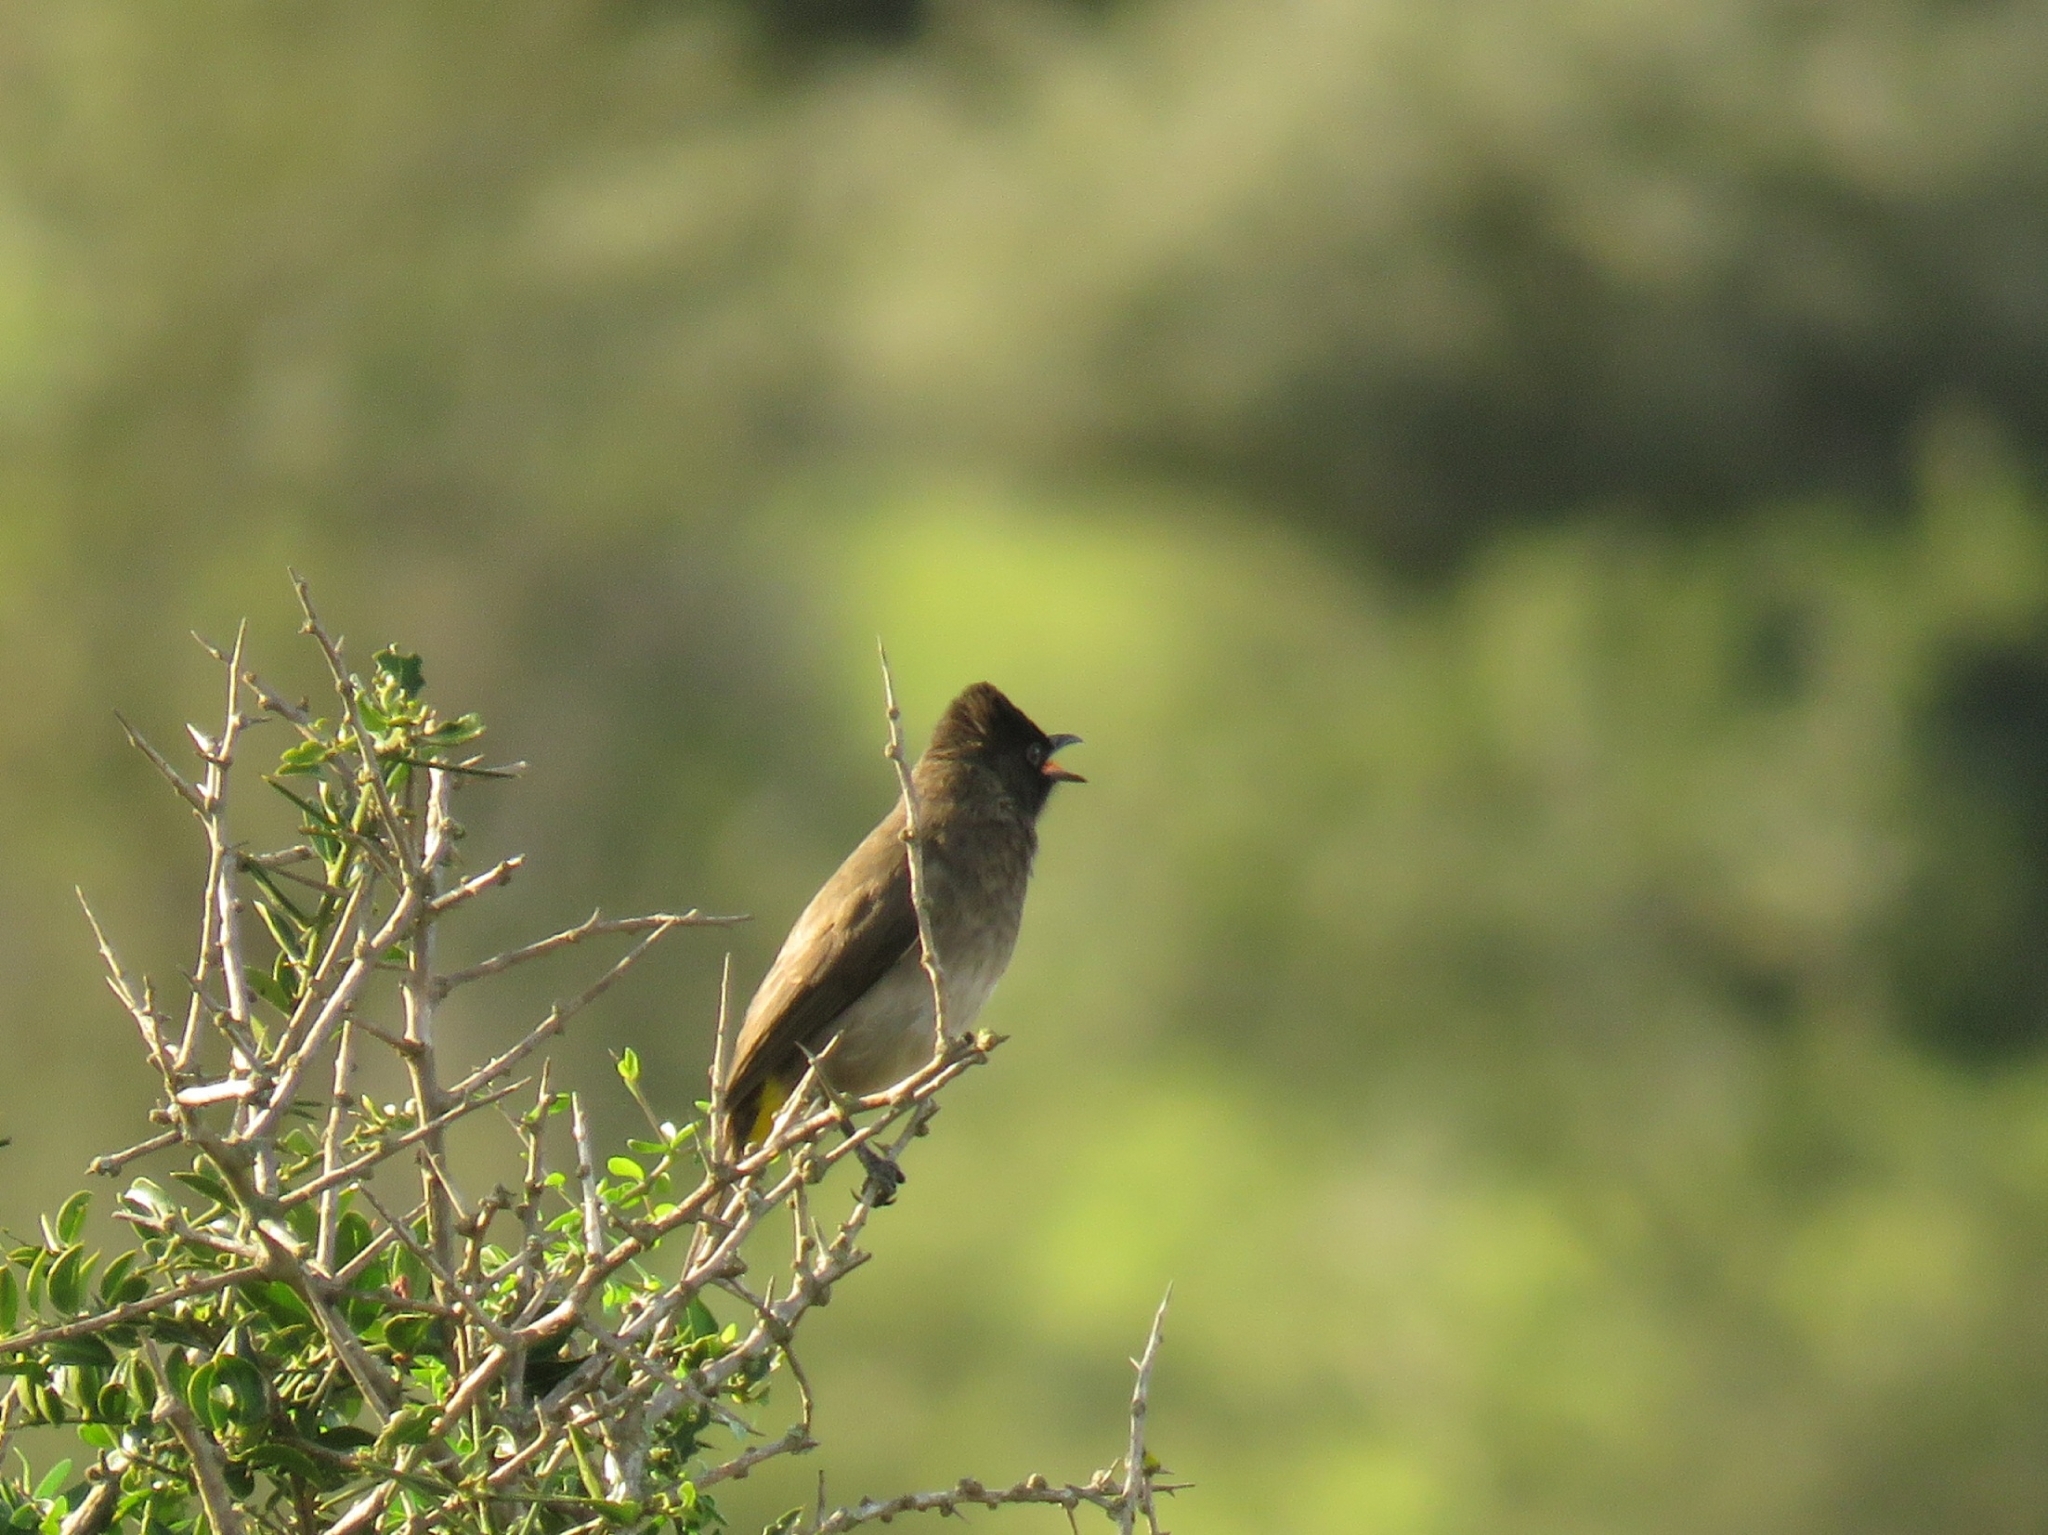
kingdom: Animalia
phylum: Chordata
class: Aves
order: Passeriformes
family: Pycnonotidae
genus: Pycnonotus
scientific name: Pycnonotus barbatus
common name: Common bulbul
